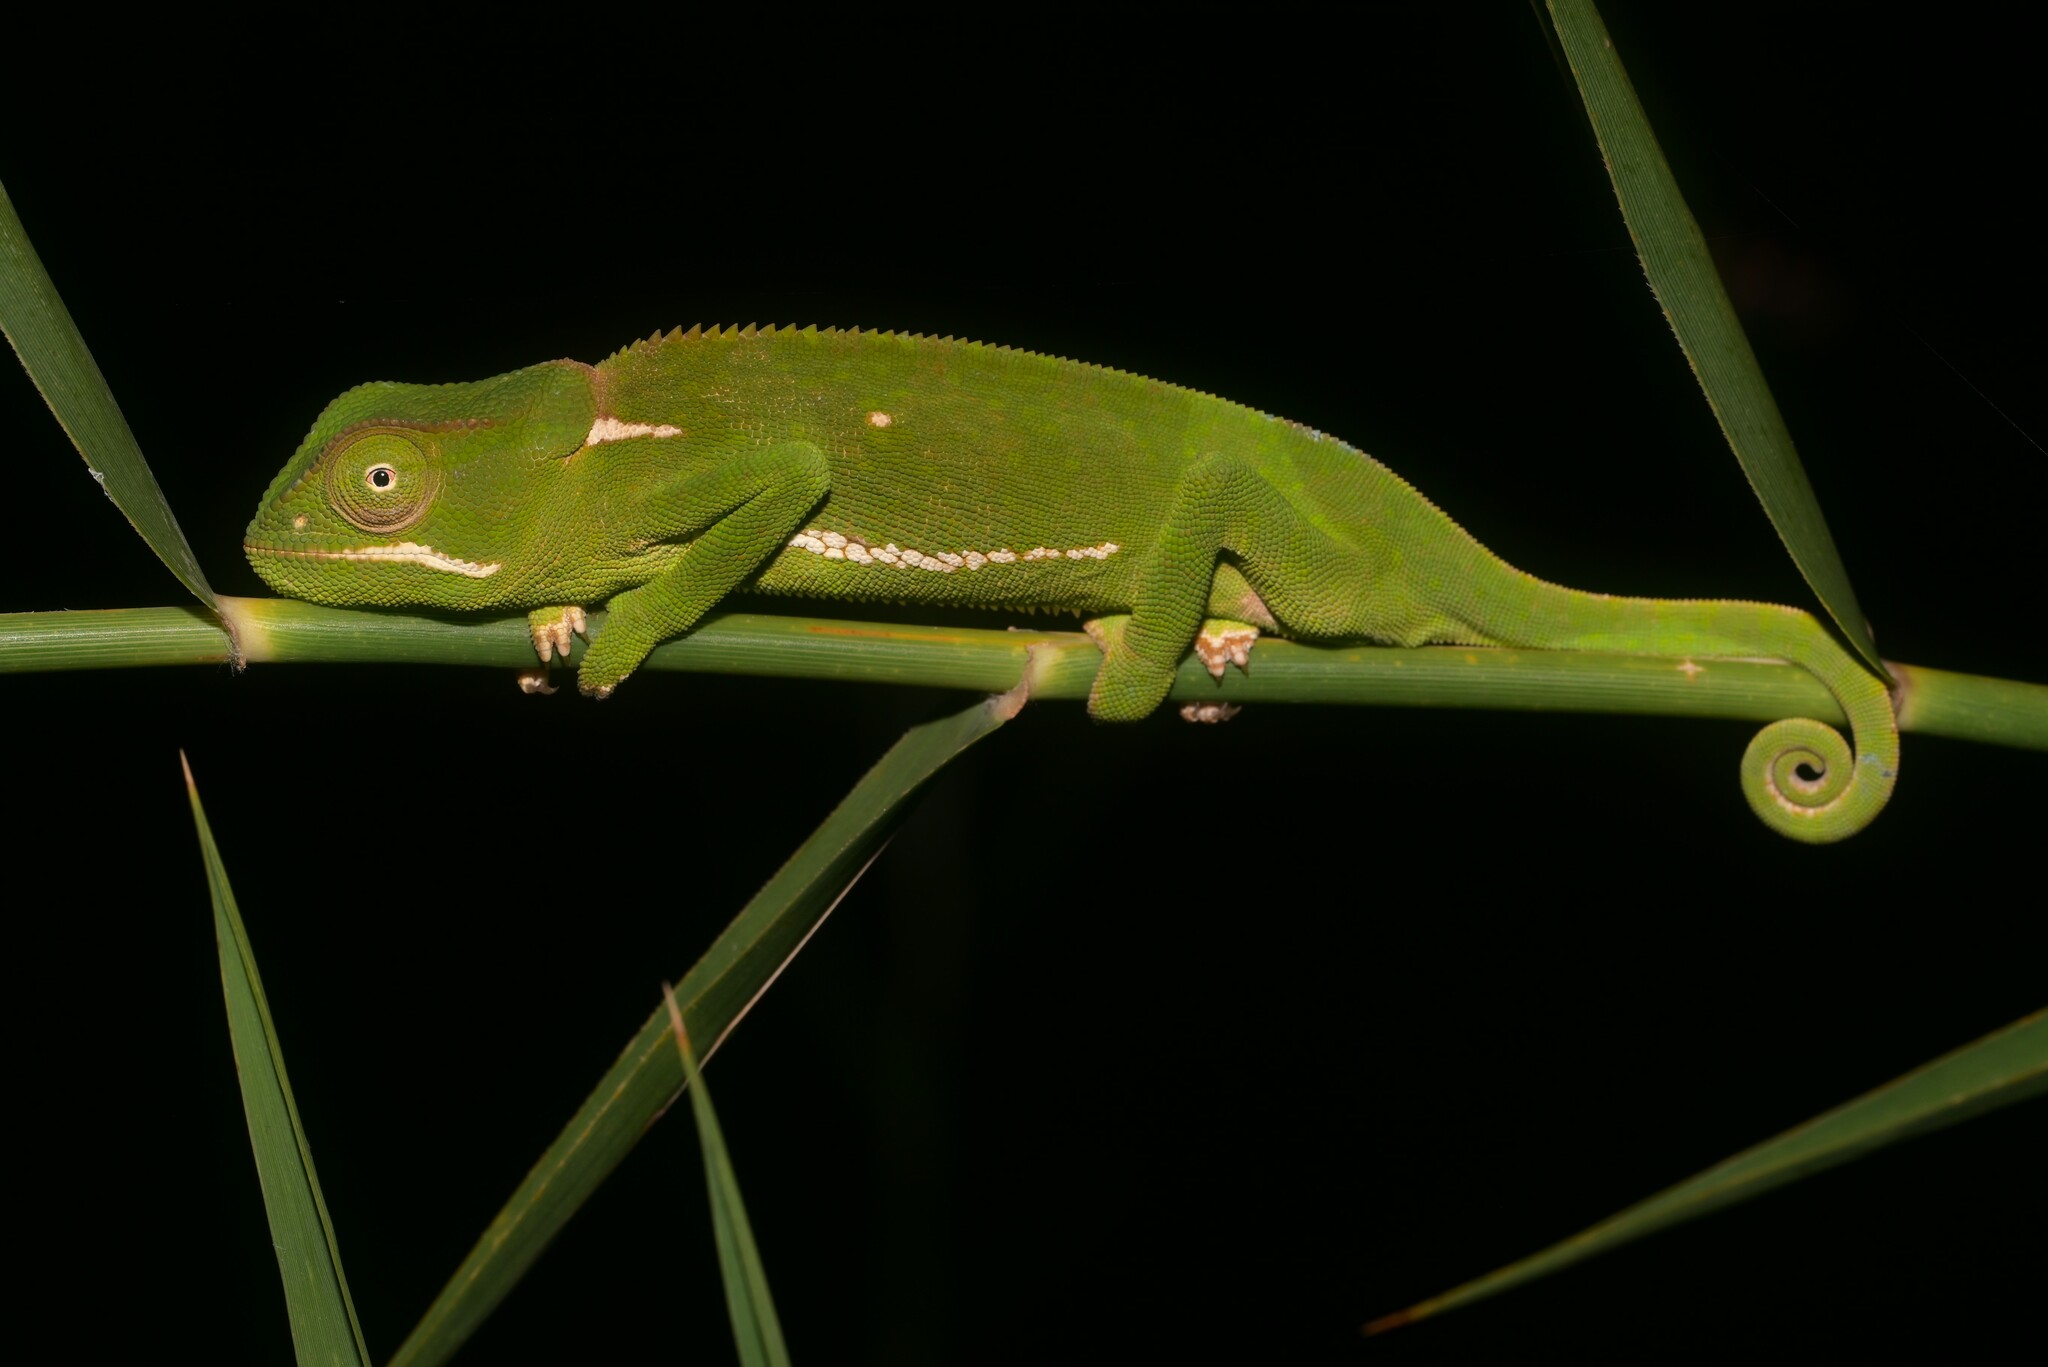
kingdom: Animalia
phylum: Chordata
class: Squamata
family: Chamaeleonidae
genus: Chamaeleo
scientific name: Chamaeleo dilepis
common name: Flapneck chameleon
